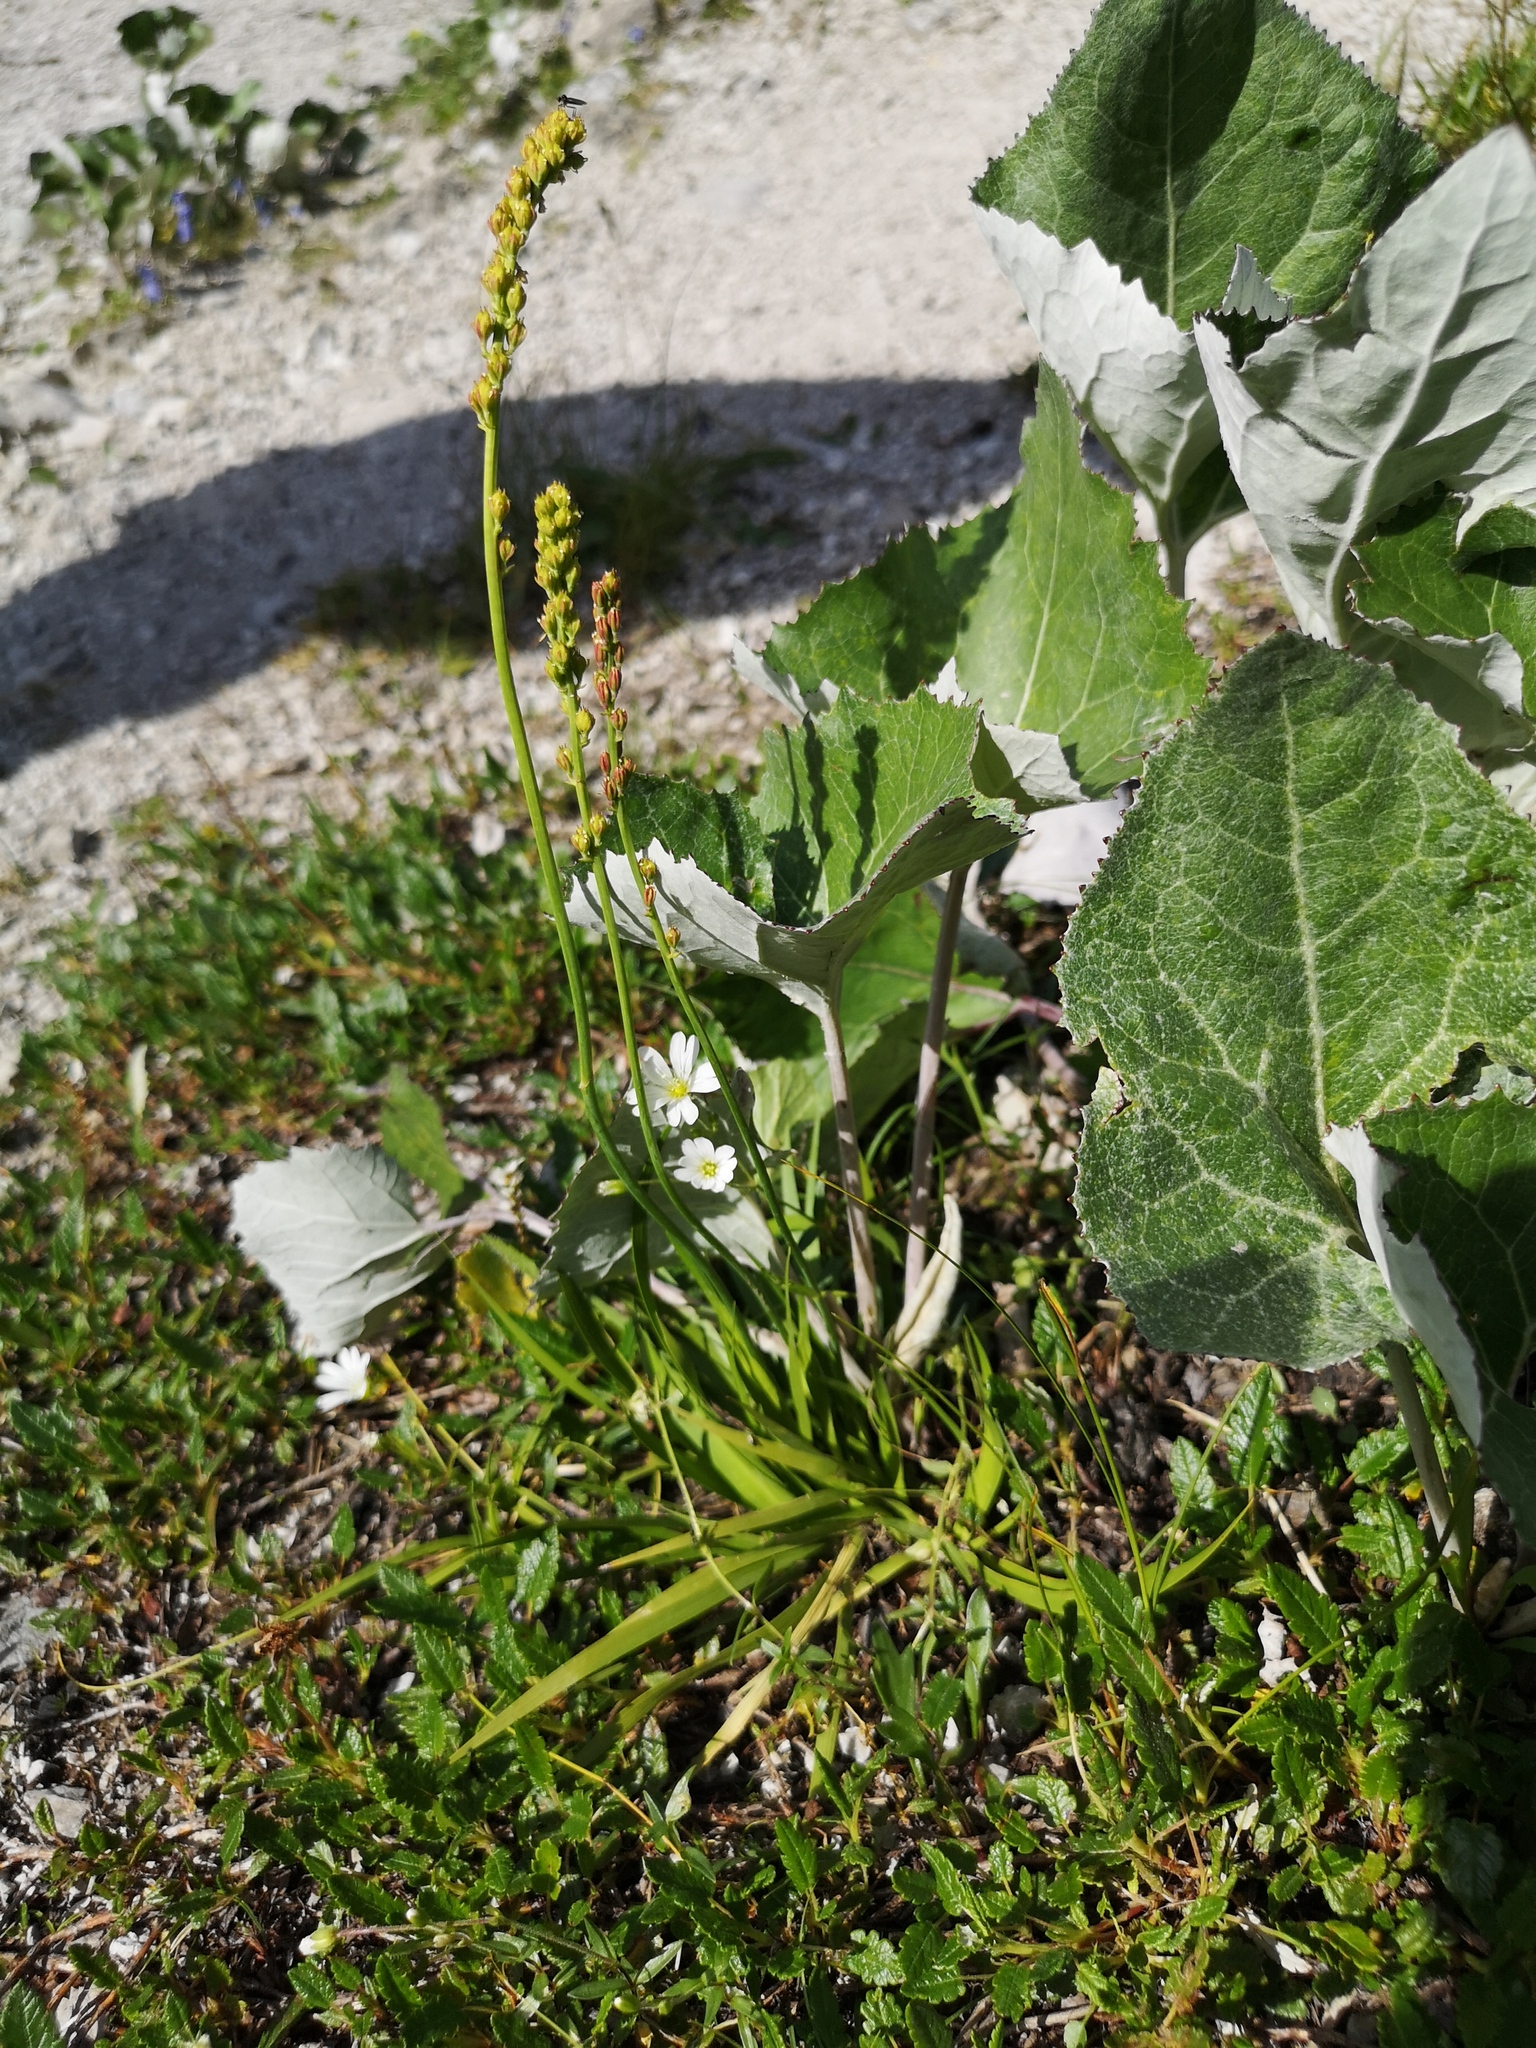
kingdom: Plantae
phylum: Tracheophyta
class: Liliopsida
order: Alismatales
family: Tofieldiaceae
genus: Tofieldia
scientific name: Tofieldia calyculata
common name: German-asphodel
